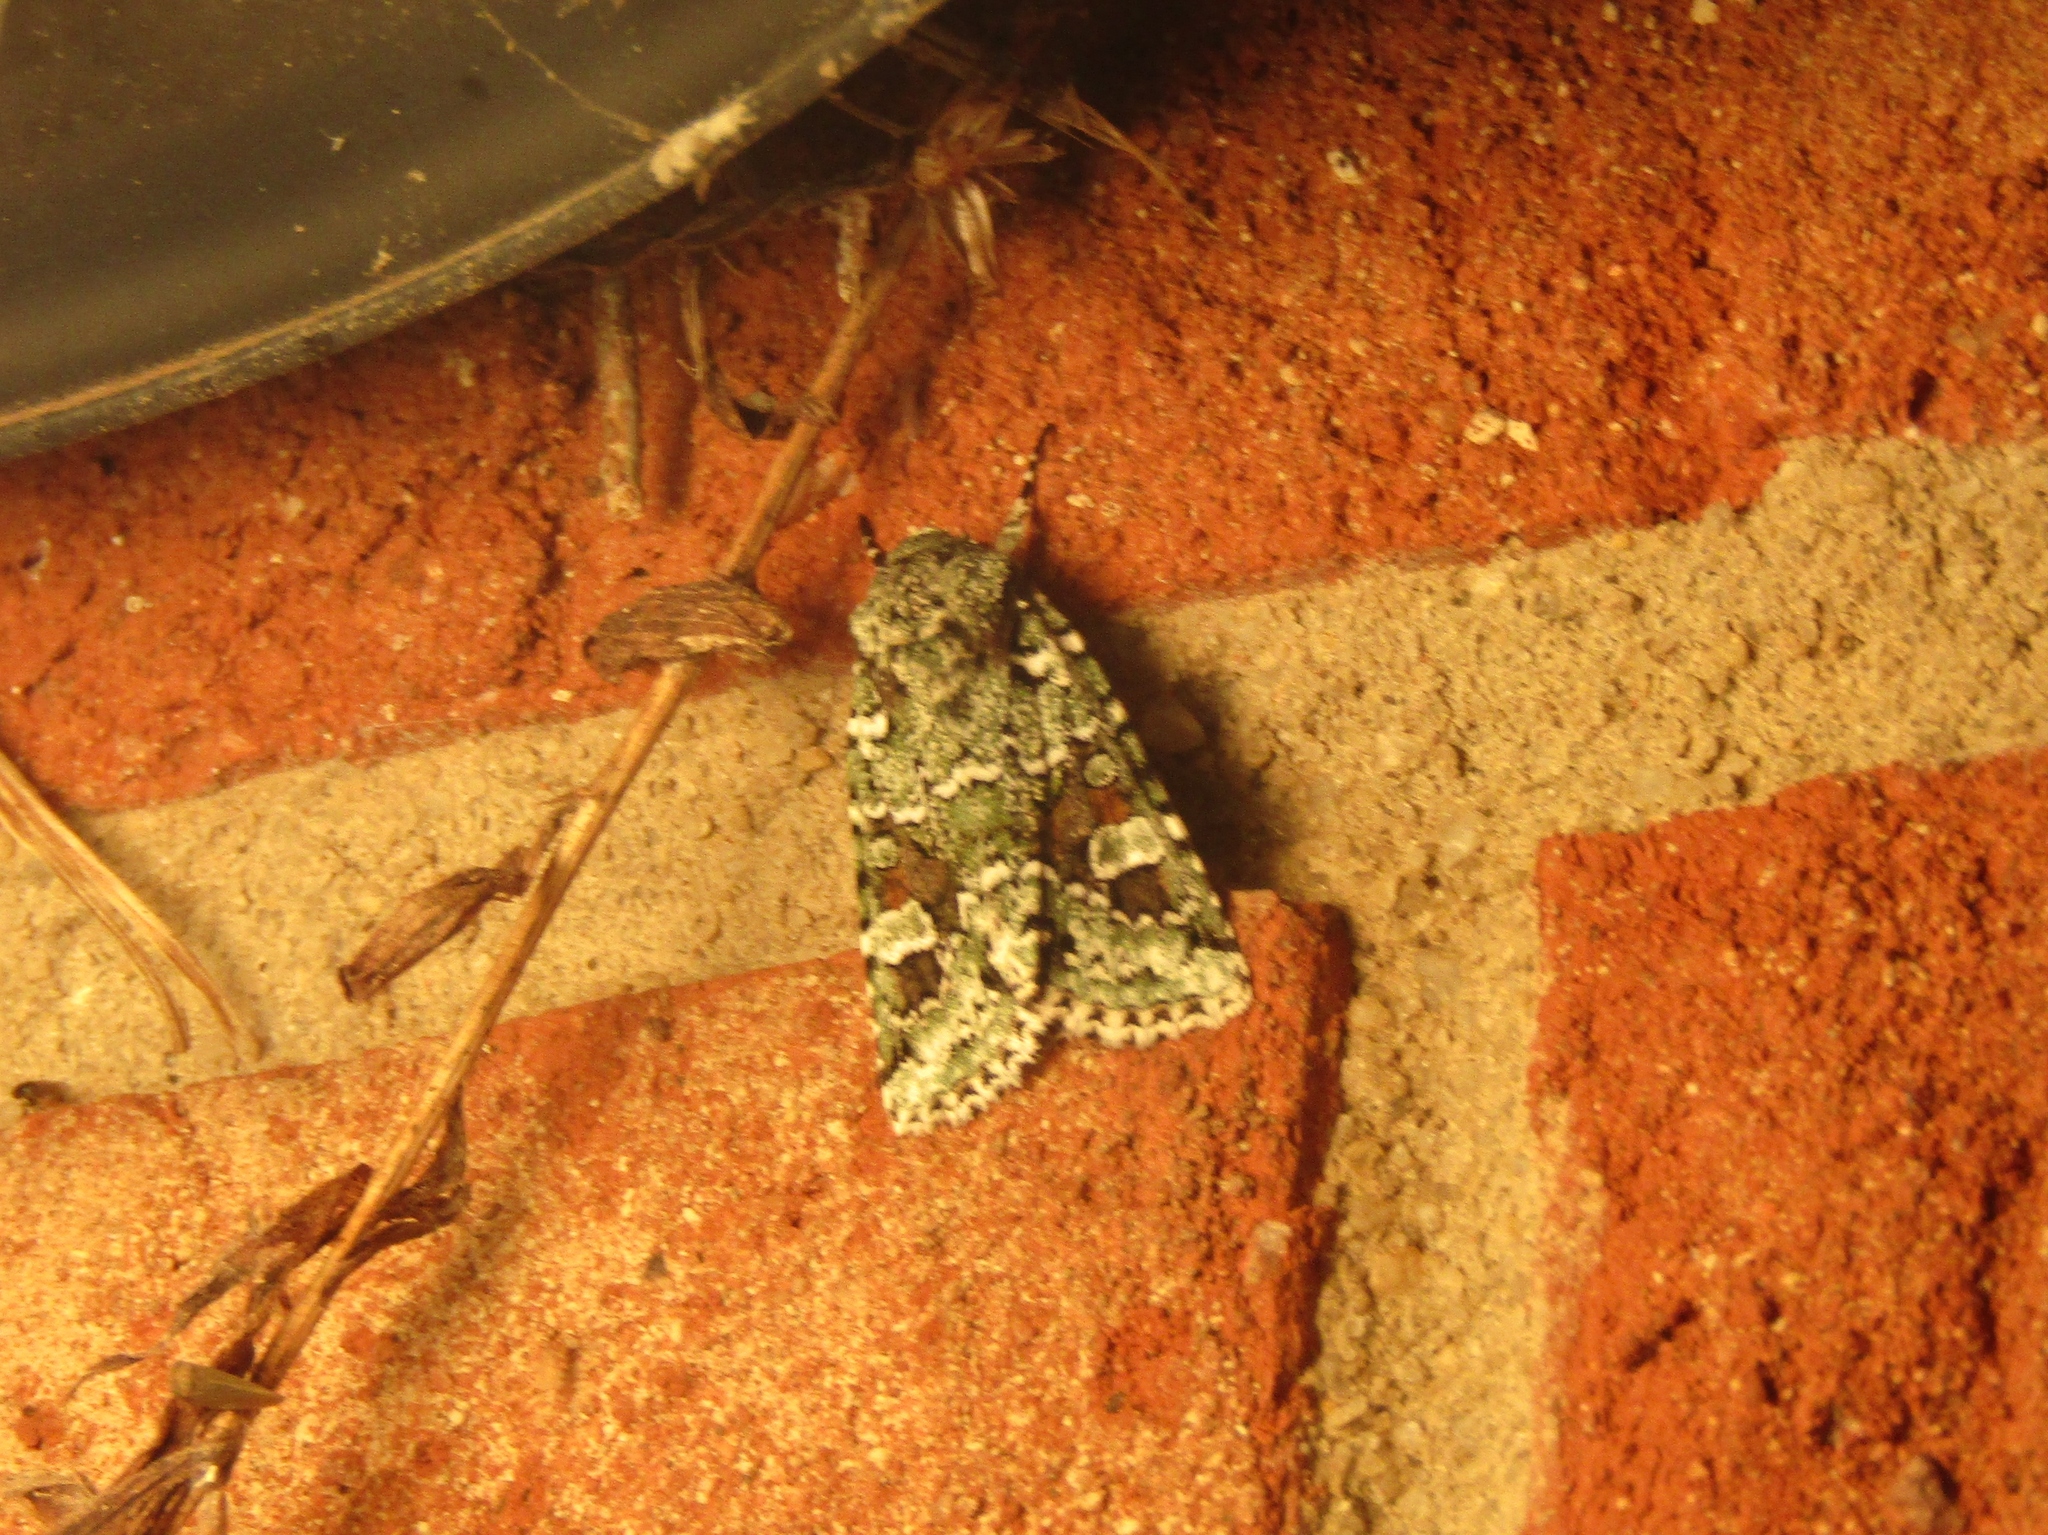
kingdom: Animalia
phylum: Arthropoda
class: Insecta
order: Lepidoptera
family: Noctuidae
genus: Lacinipolia
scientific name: Lacinipolia laudabilis
